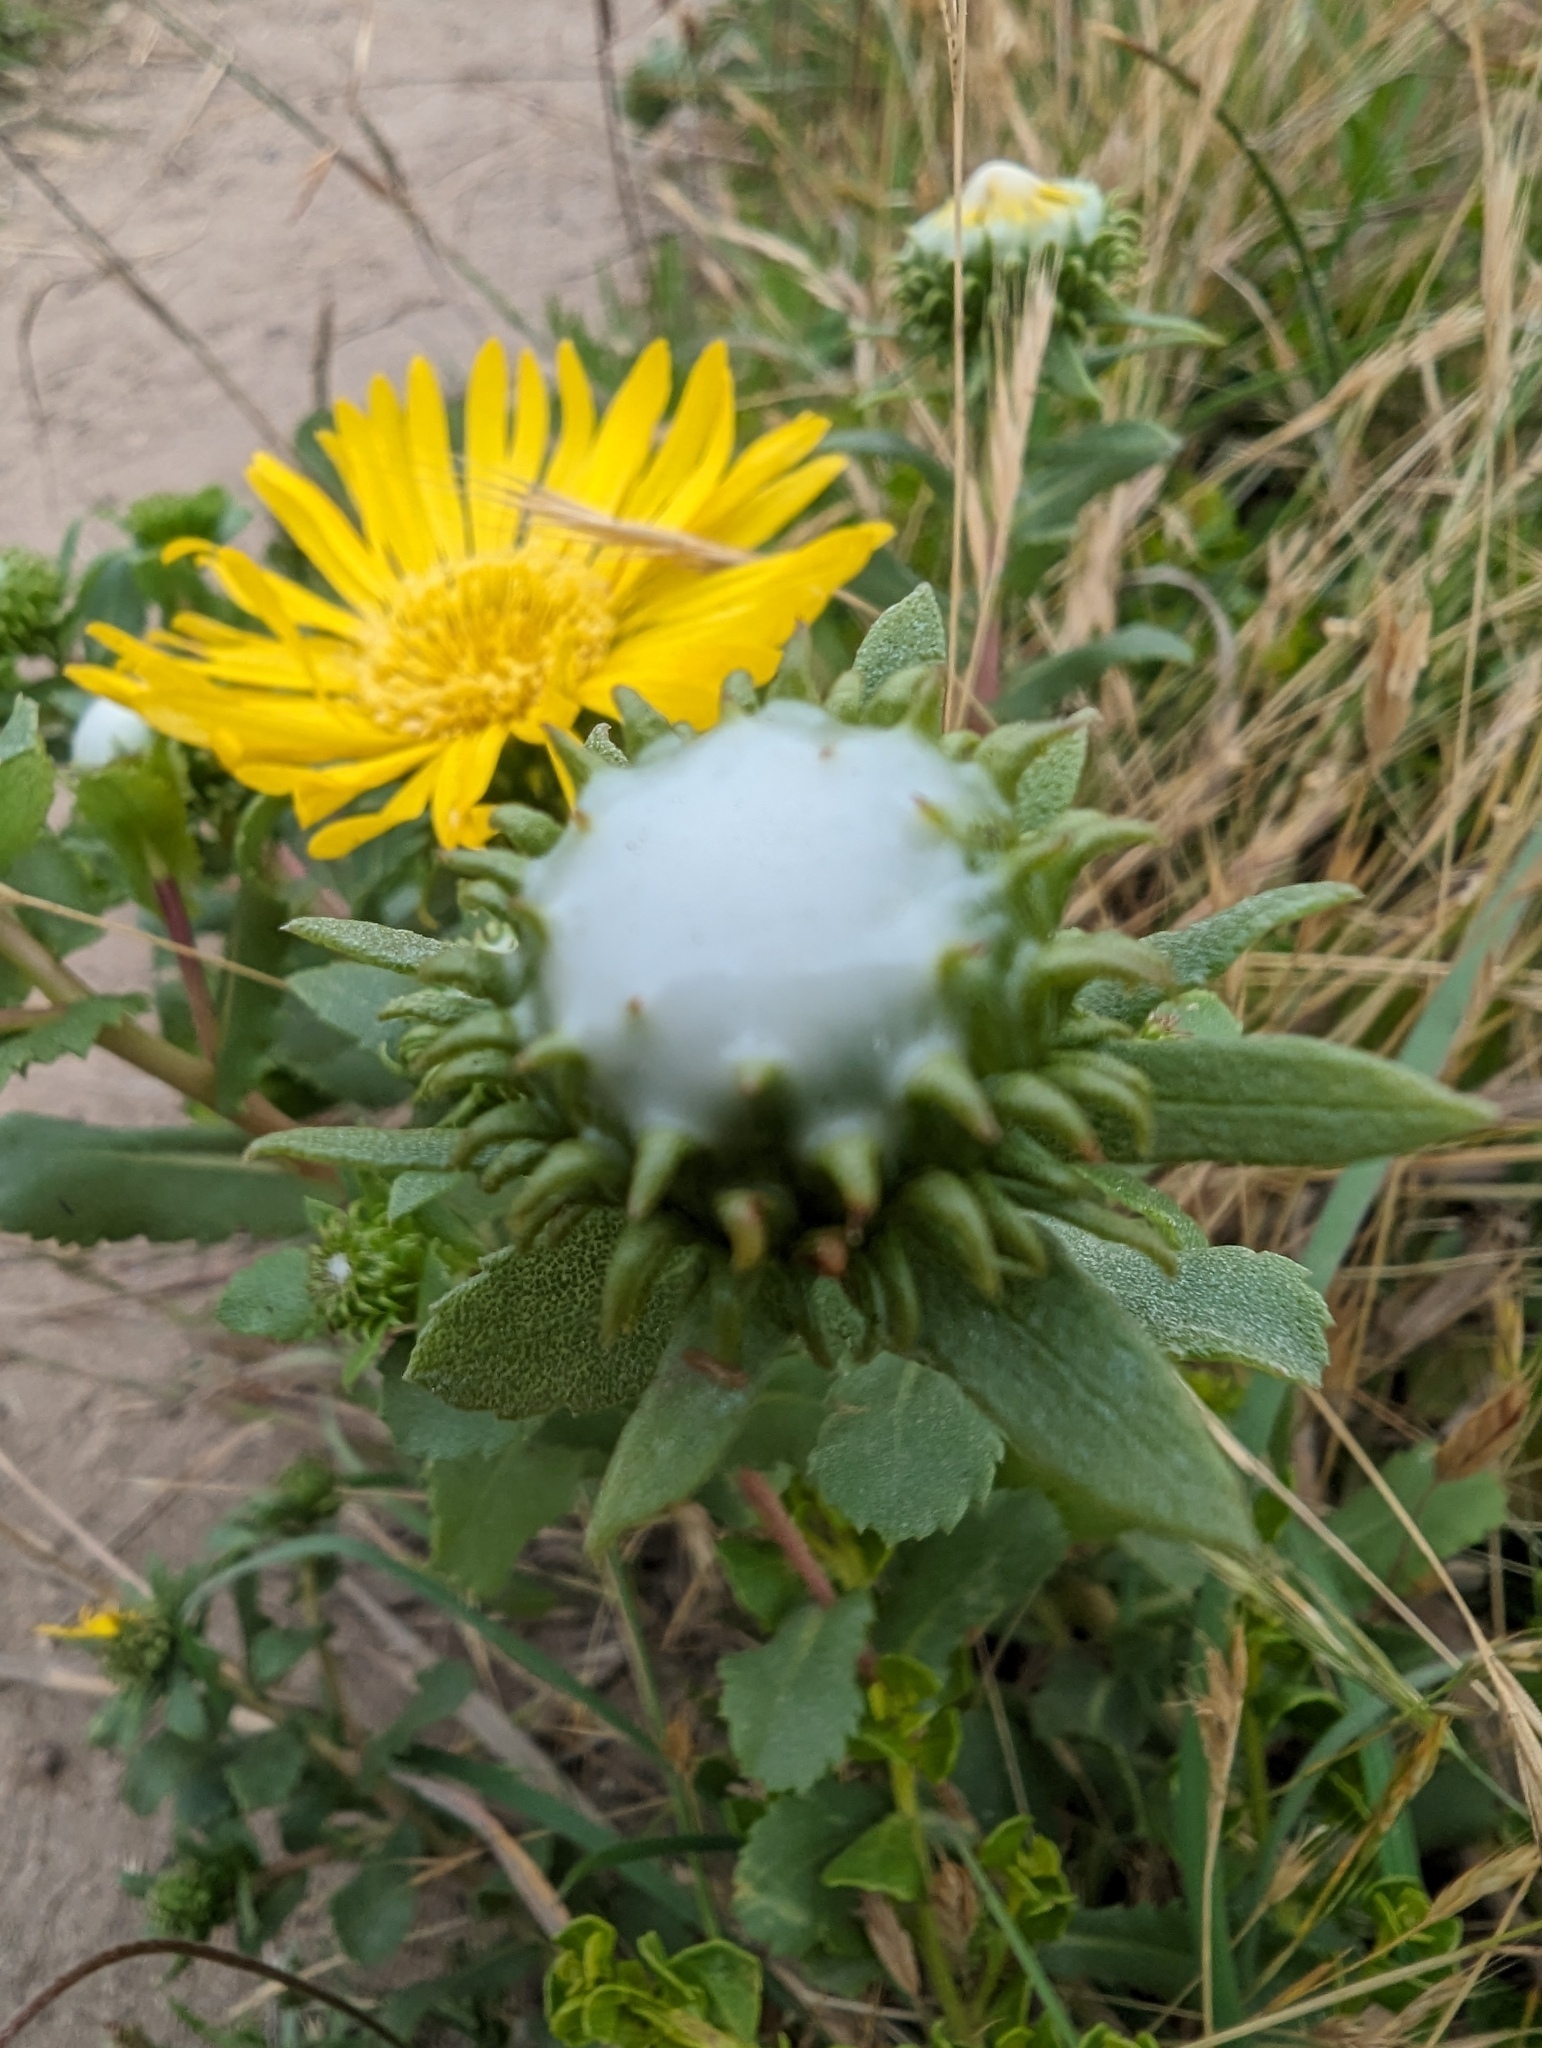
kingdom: Plantae
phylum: Tracheophyta
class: Magnoliopsida
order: Asterales
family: Asteraceae
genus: Grindelia
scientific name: Grindelia hirsutula
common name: Hairy gumweed
